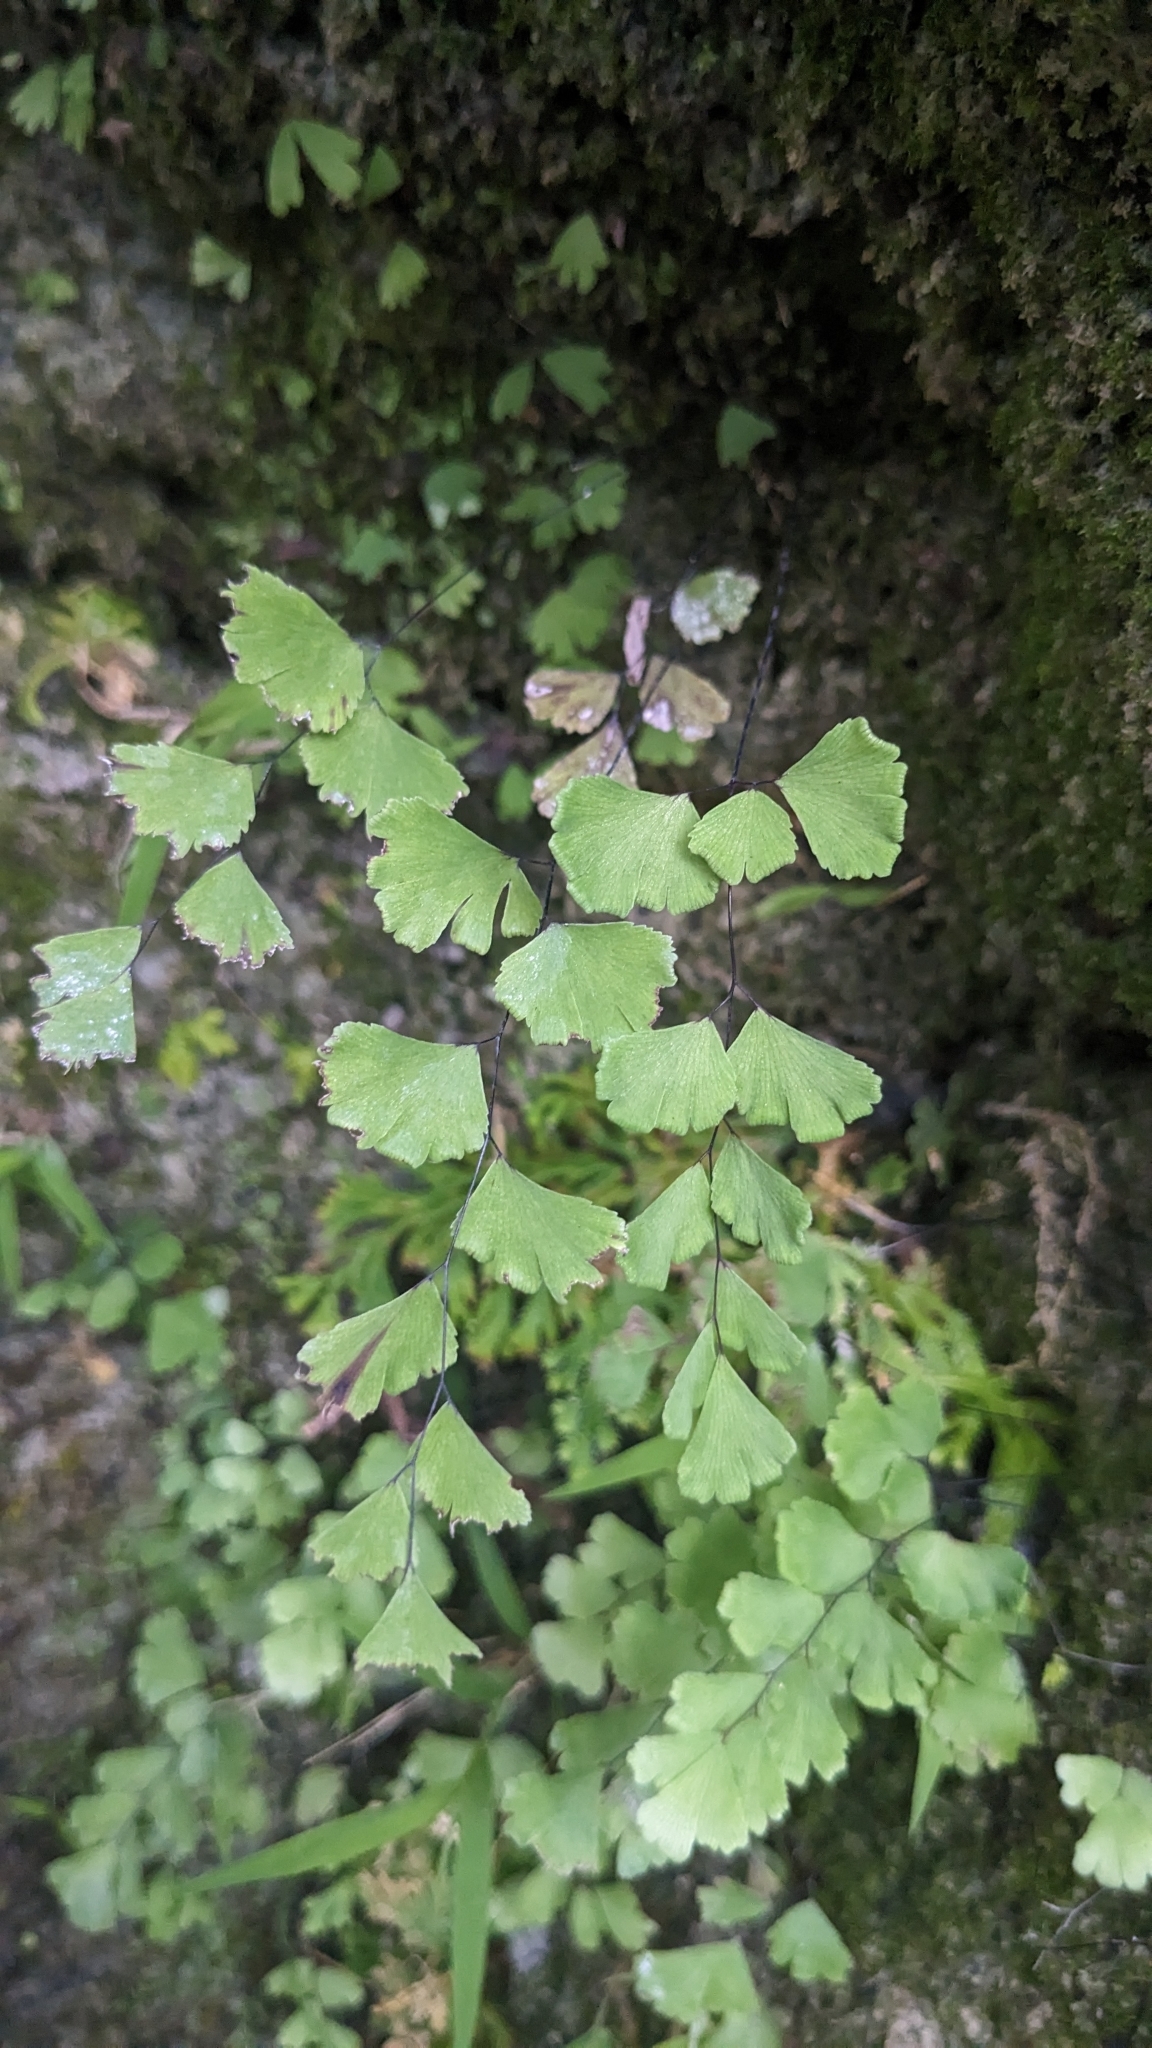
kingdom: Plantae
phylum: Tracheophyta
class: Polypodiopsida
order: Polypodiales
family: Pteridaceae
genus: Adiantum
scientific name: Adiantum capillus-veneris
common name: Maidenhair fern
